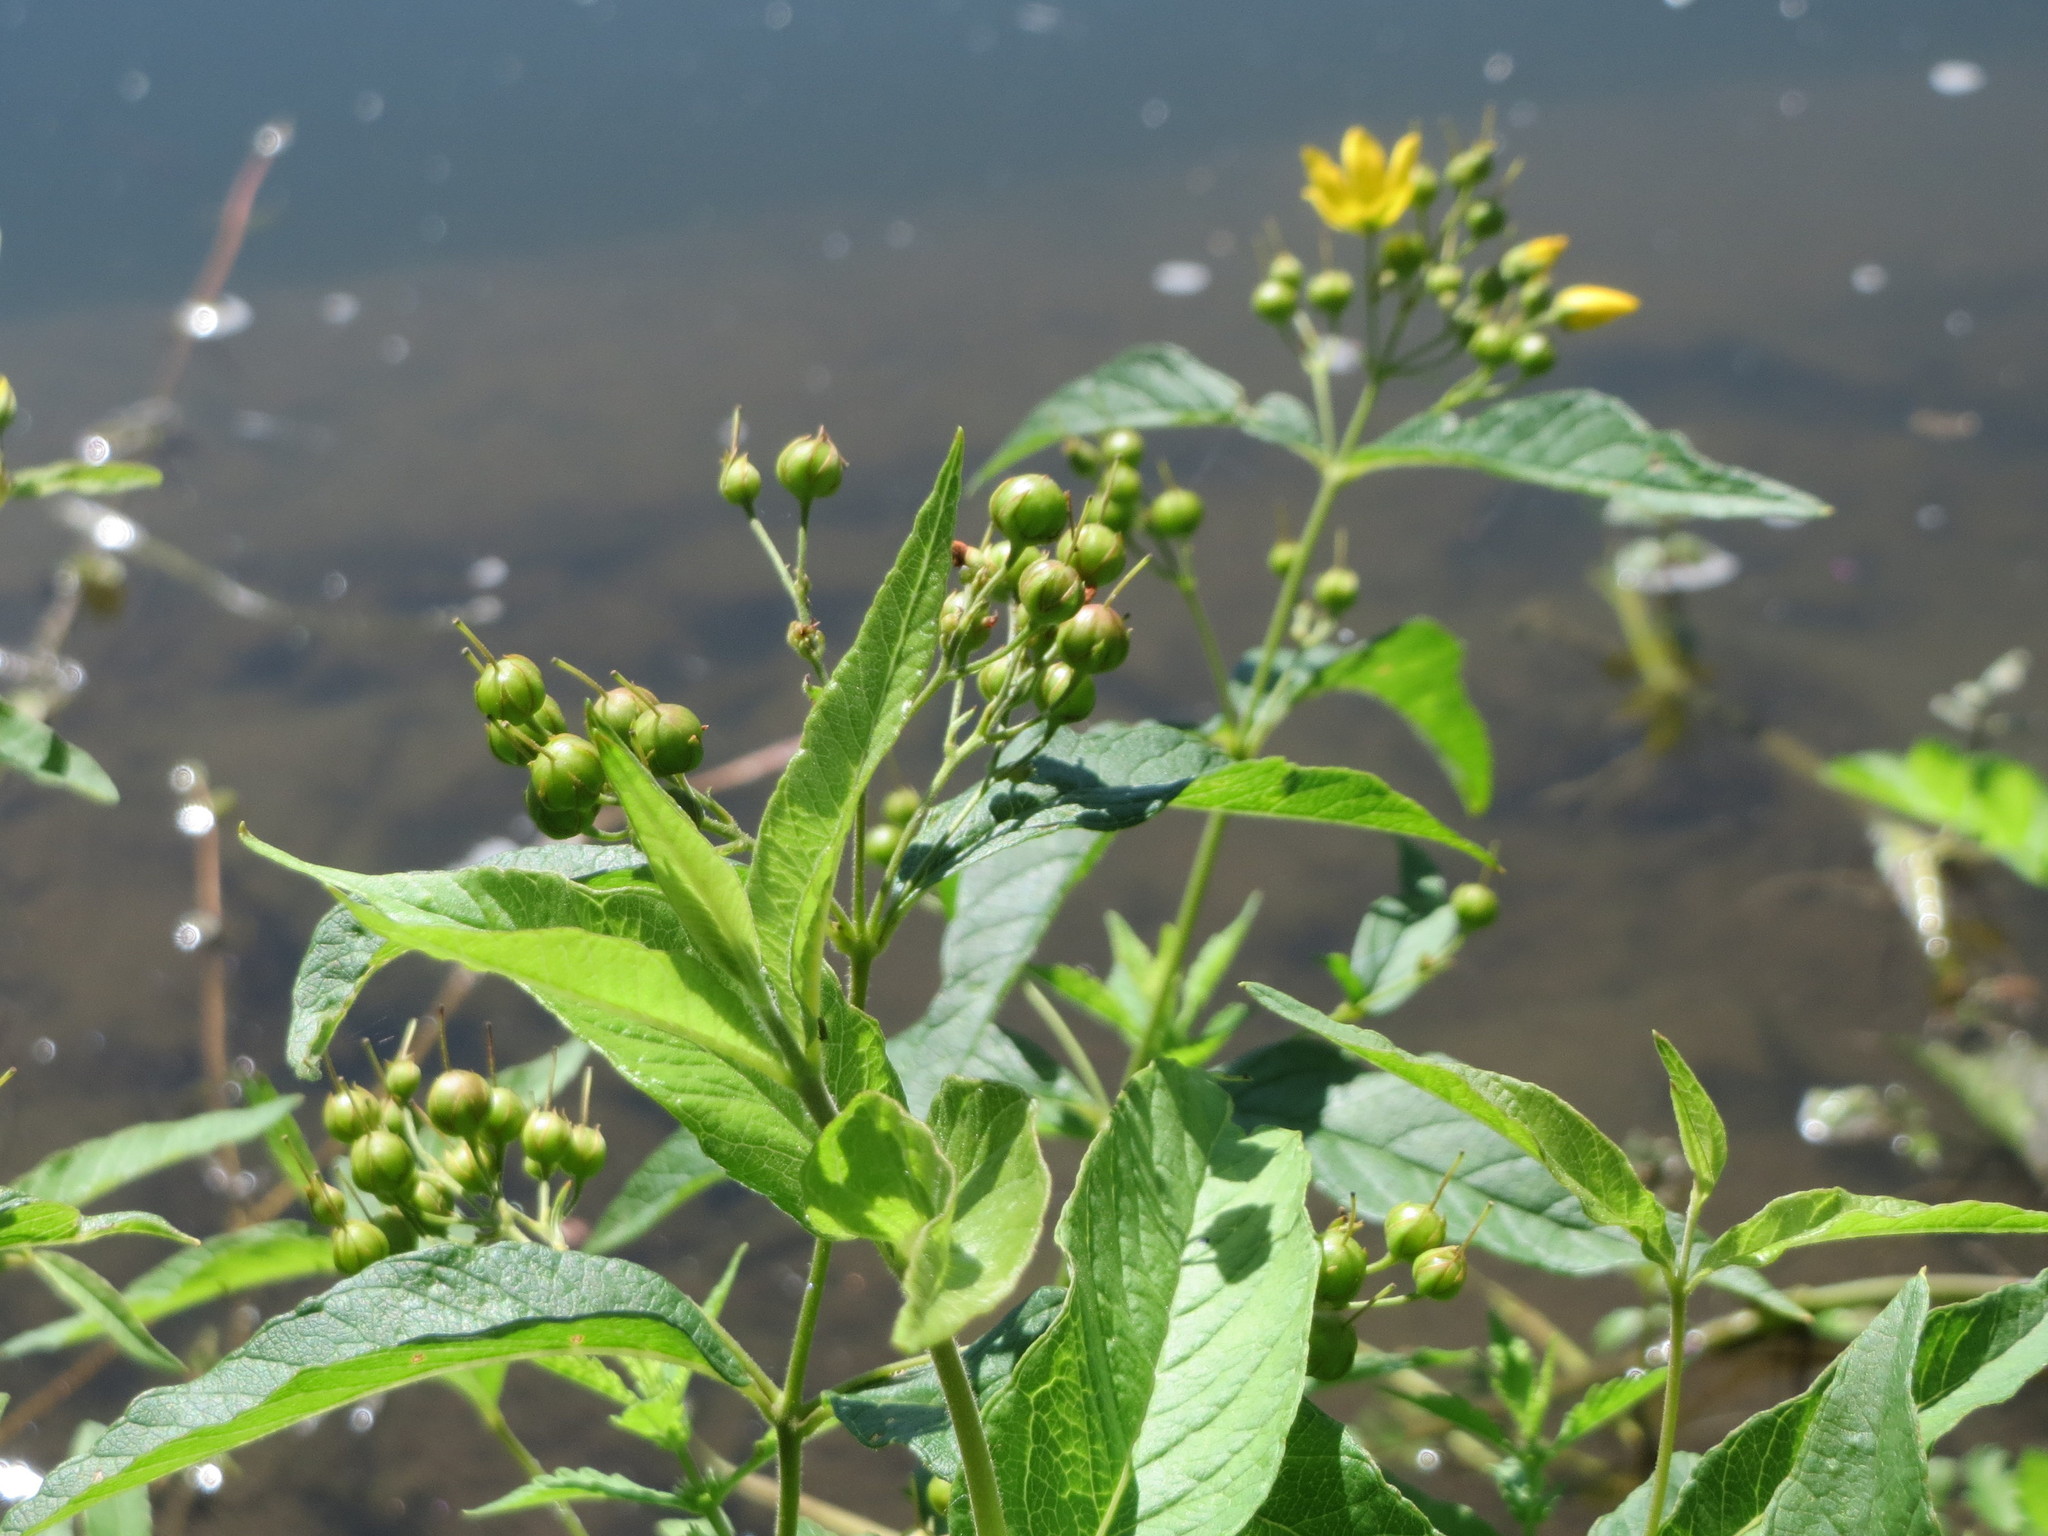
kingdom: Plantae
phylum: Tracheophyta
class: Magnoliopsida
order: Ericales
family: Primulaceae
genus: Lysimachia
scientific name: Lysimachia vulgaris
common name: Yellow loosestrife
